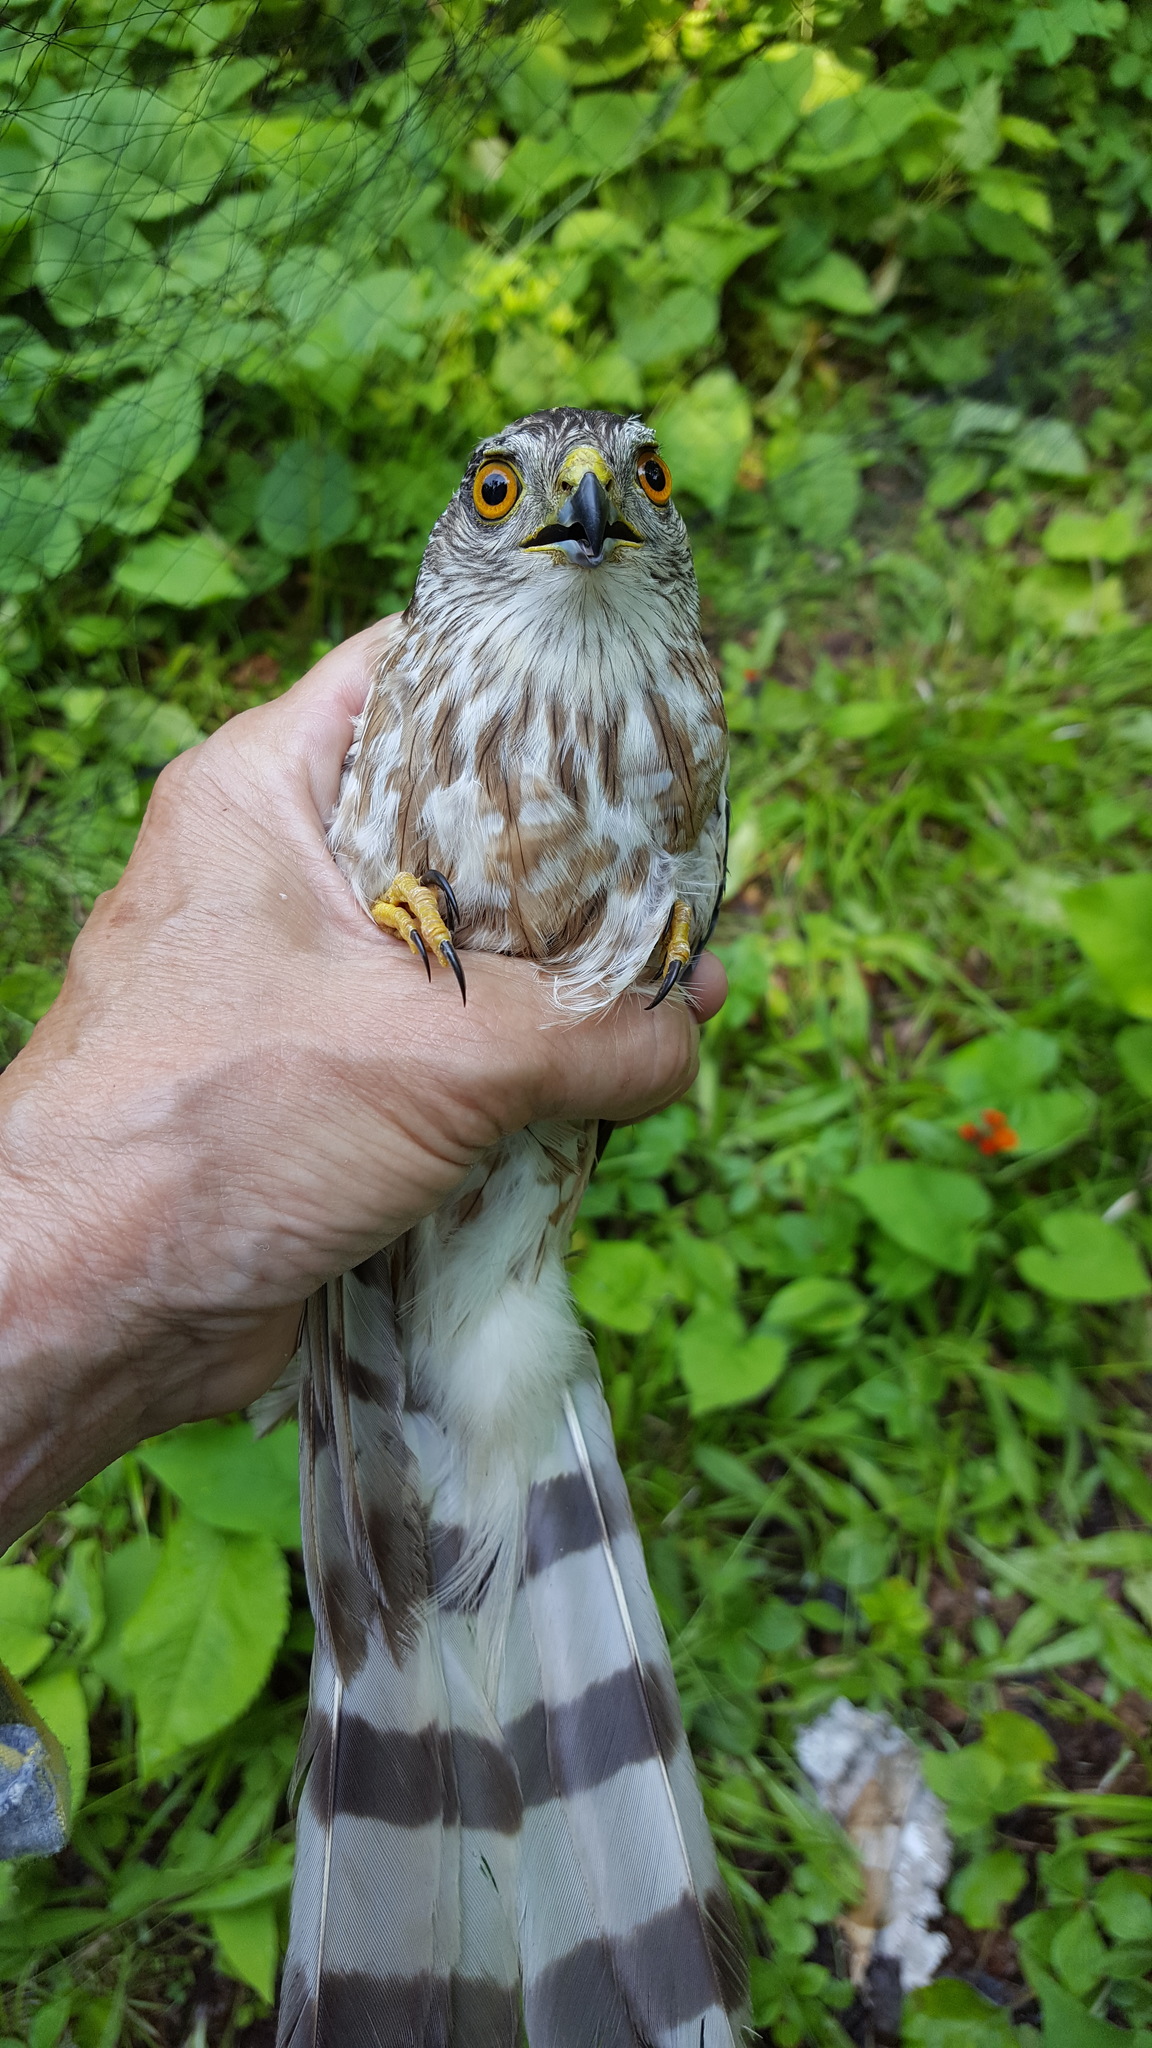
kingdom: Animalia
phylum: Chordata
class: Aves
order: Accipitriformes
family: Accipitridae
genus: Accipiter
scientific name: Accipiter striatus
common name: Sharp-shinned hawk
